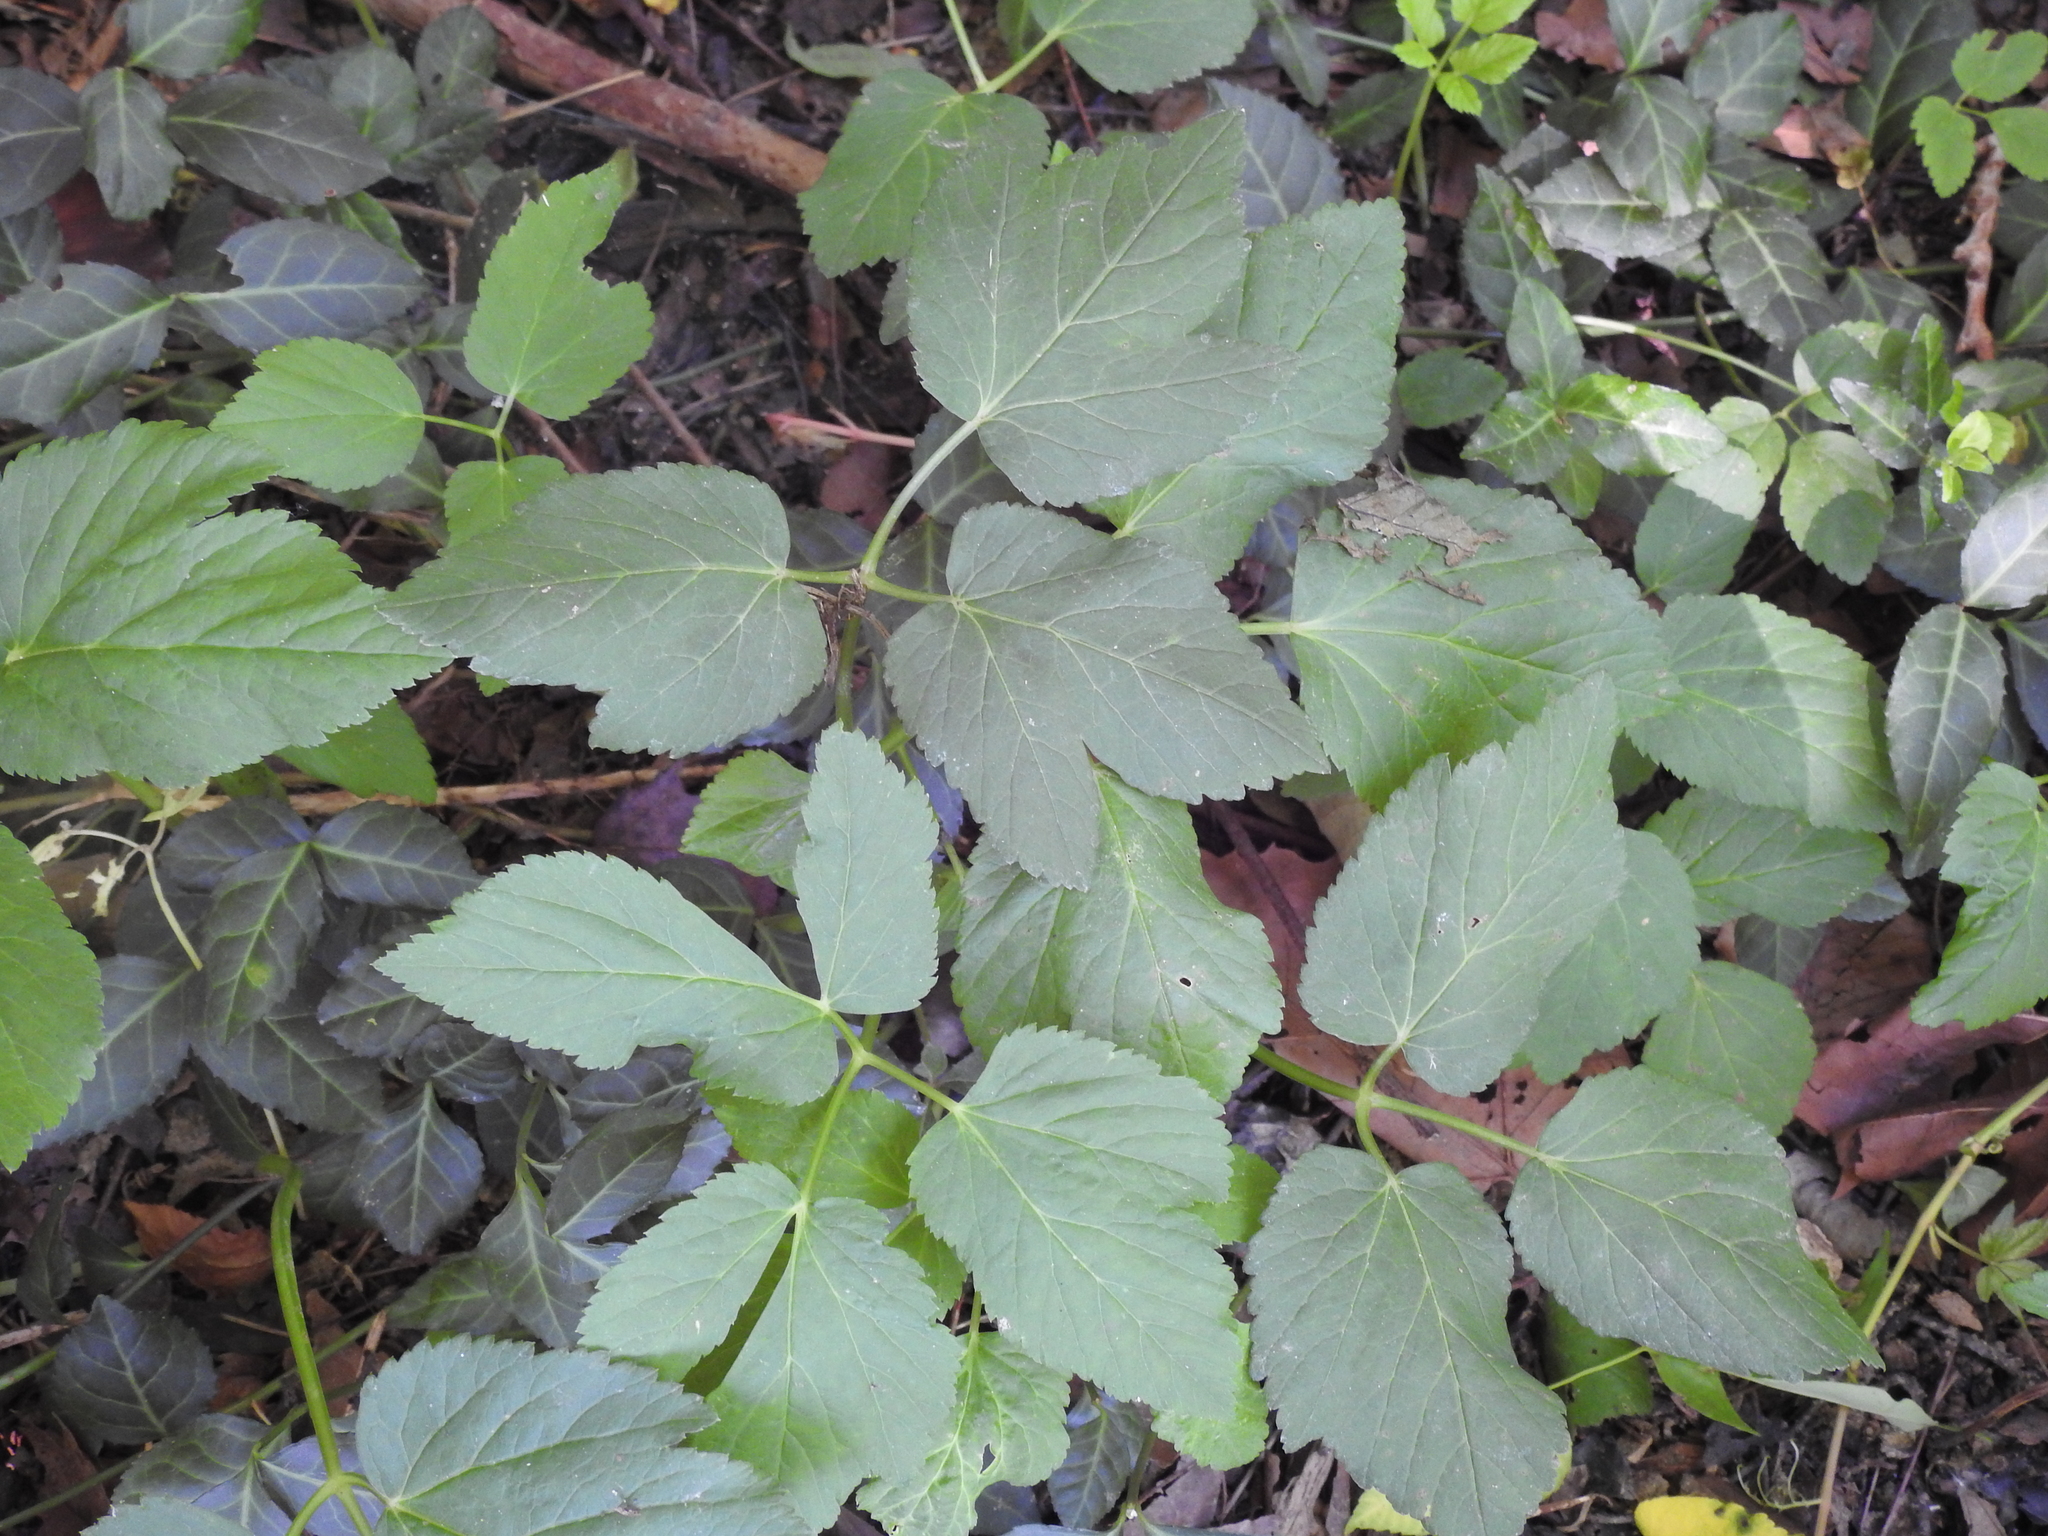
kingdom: Plantae
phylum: Tracheophyta
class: Magnoliopsida
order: Apiales
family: Apiaceae
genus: Aegopodium
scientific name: Aegopodium podagraria
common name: Ground-elder
